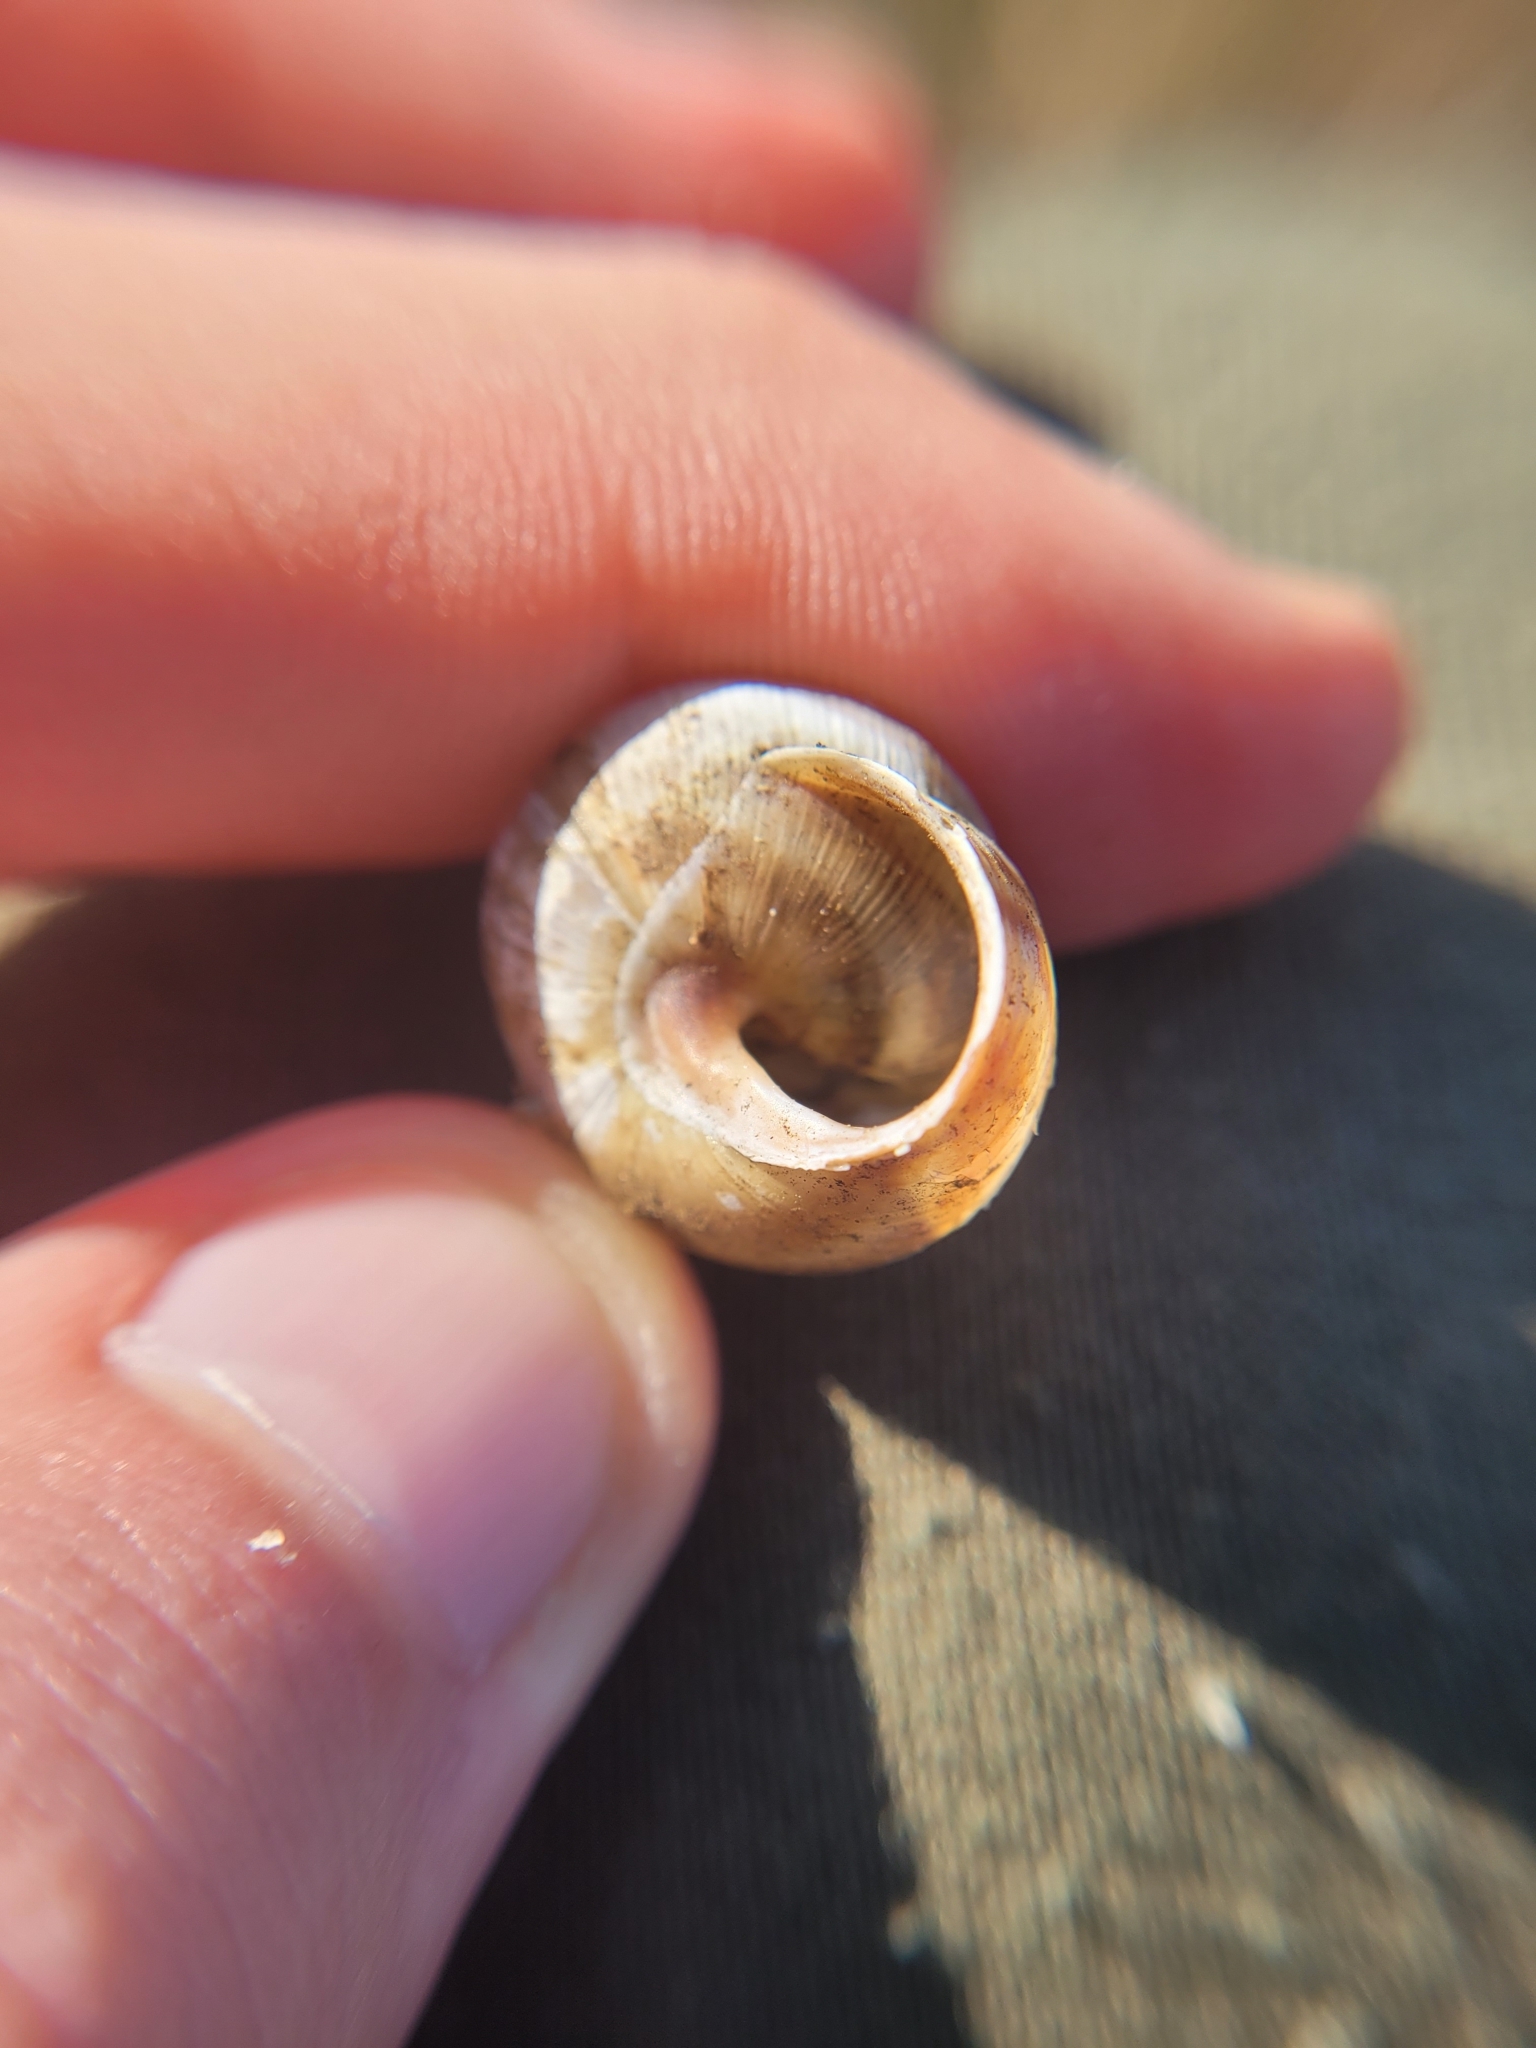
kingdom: Animalia
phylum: Mollusca
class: Gastropoda
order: Stylommatophora
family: Helicidae
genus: Caucasotachea
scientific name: Caucasotachea vindobonensis
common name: European helicid land snail
